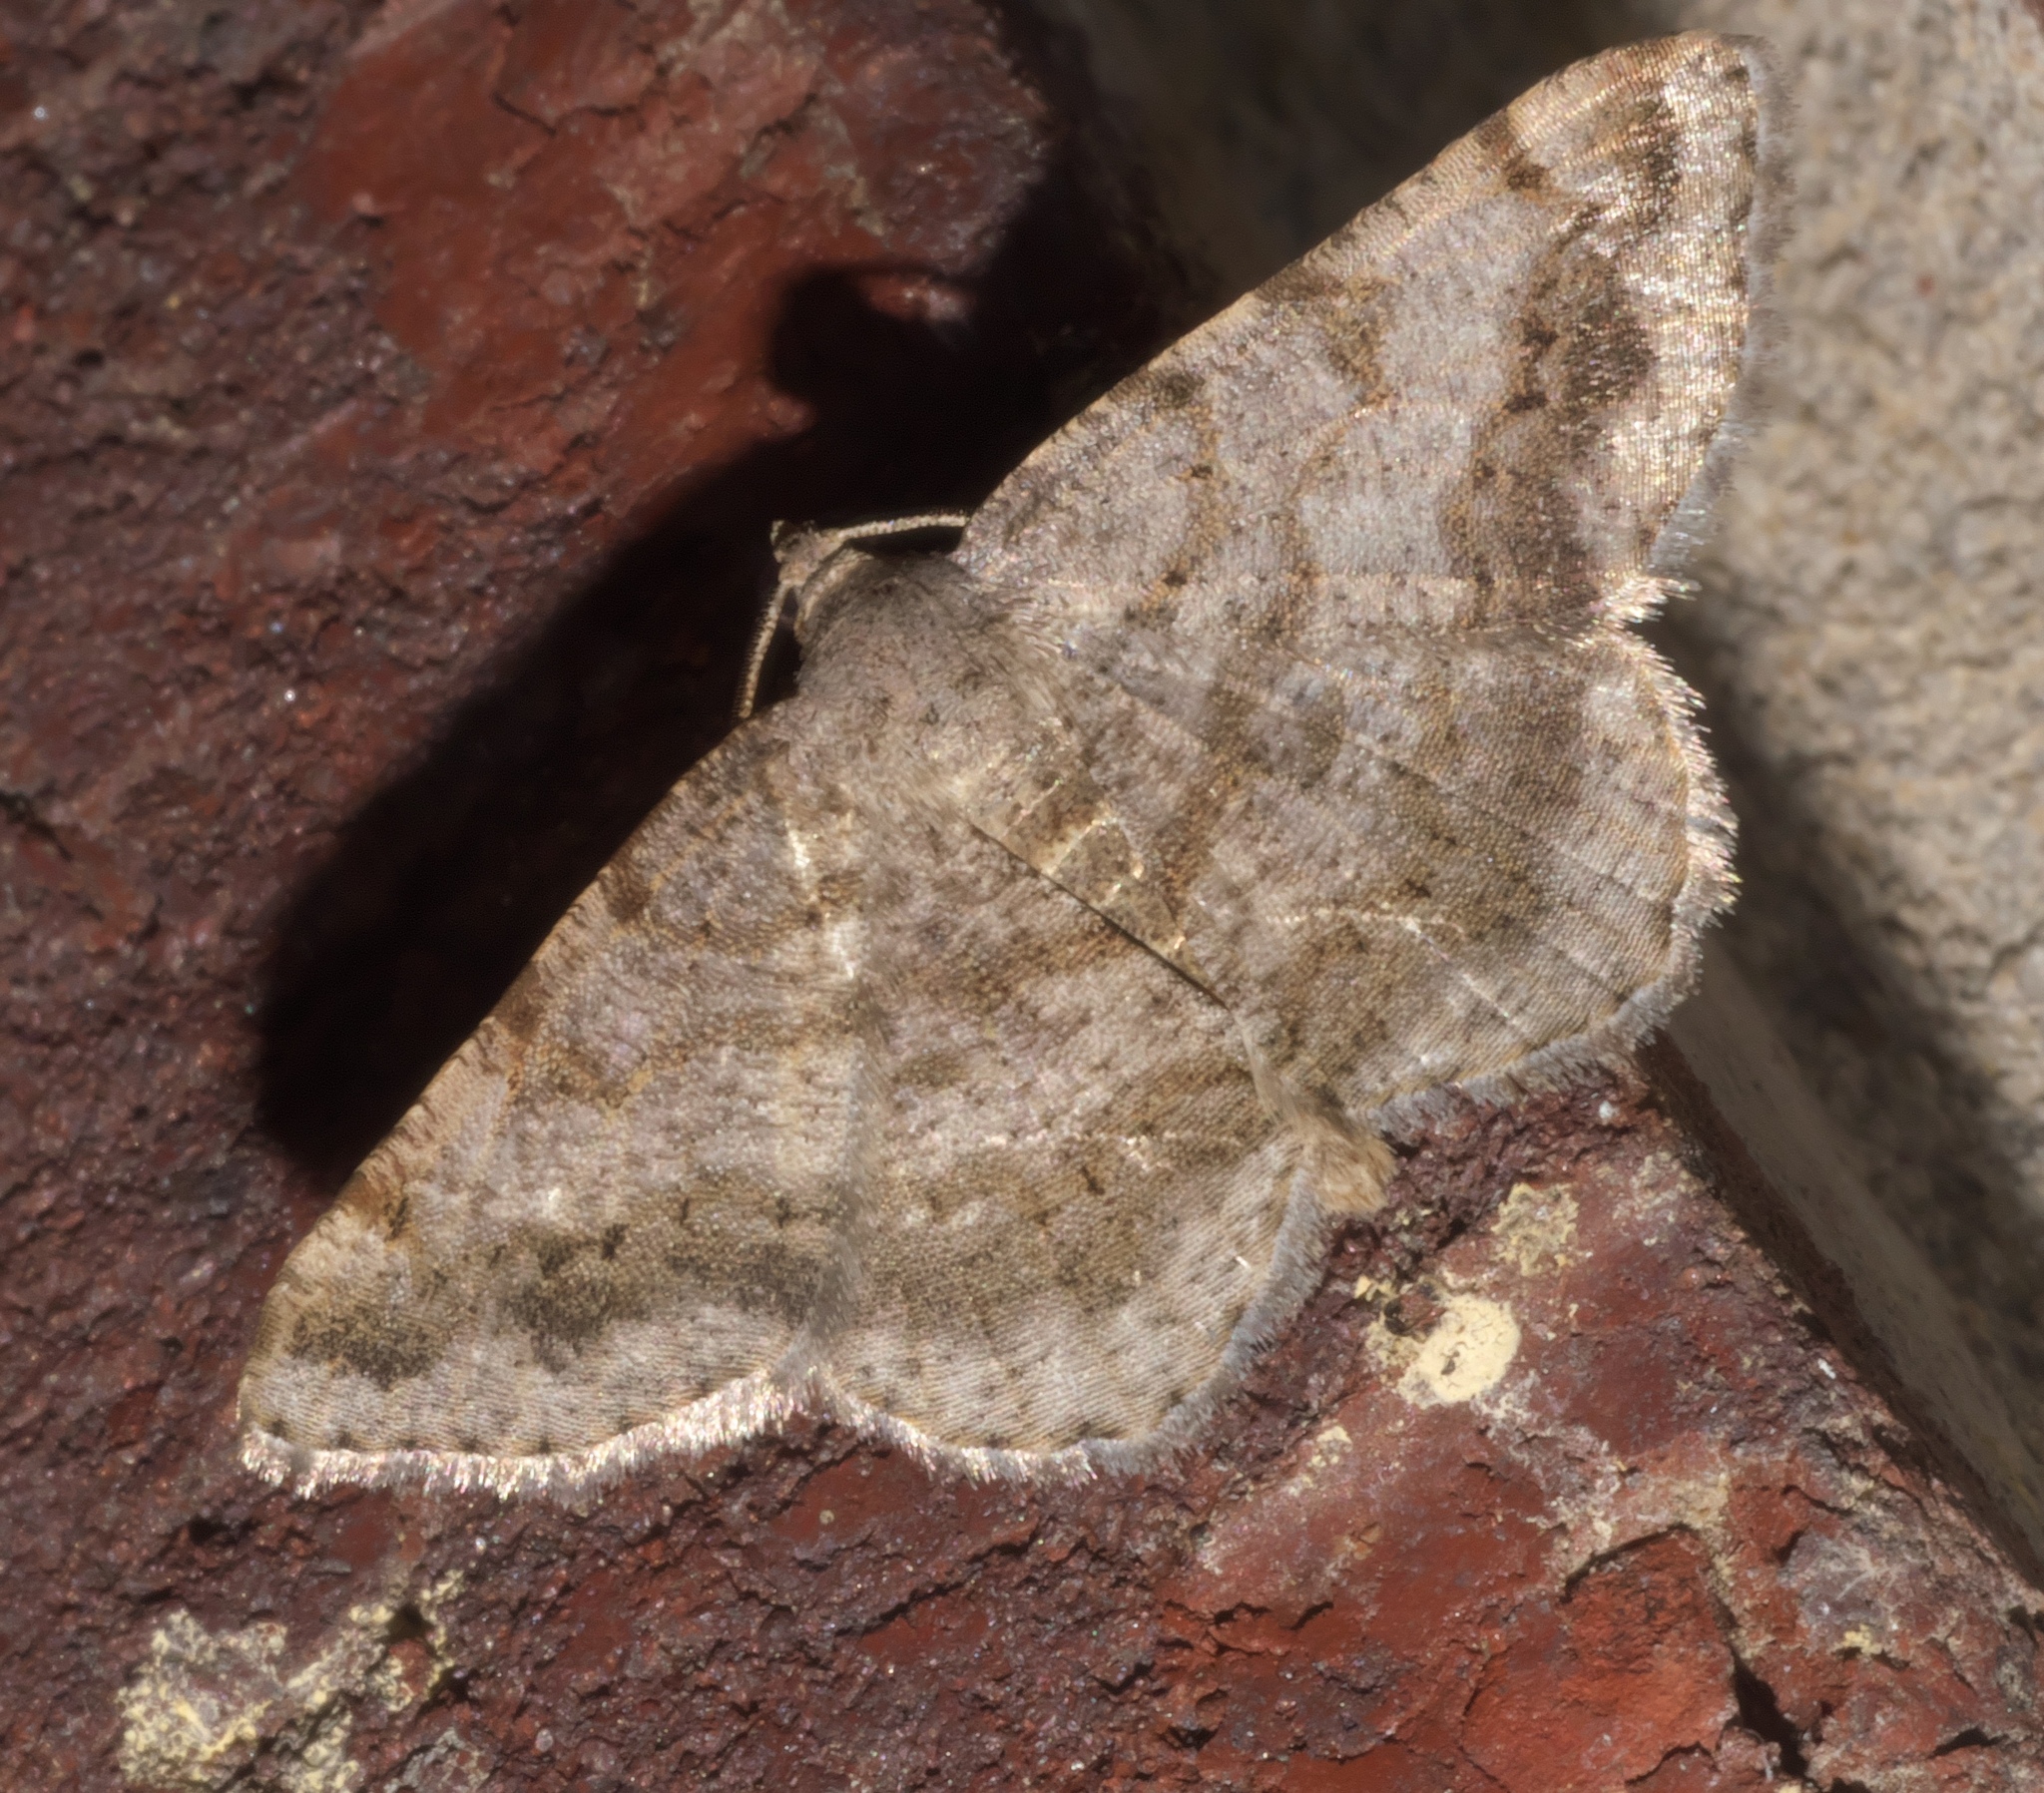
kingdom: Animalia
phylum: Arthropoda
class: Insecta
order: Lepidoptera
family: Geometridae
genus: Digrammia
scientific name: Digrammia ocellinata
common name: Faint-spotted angle
